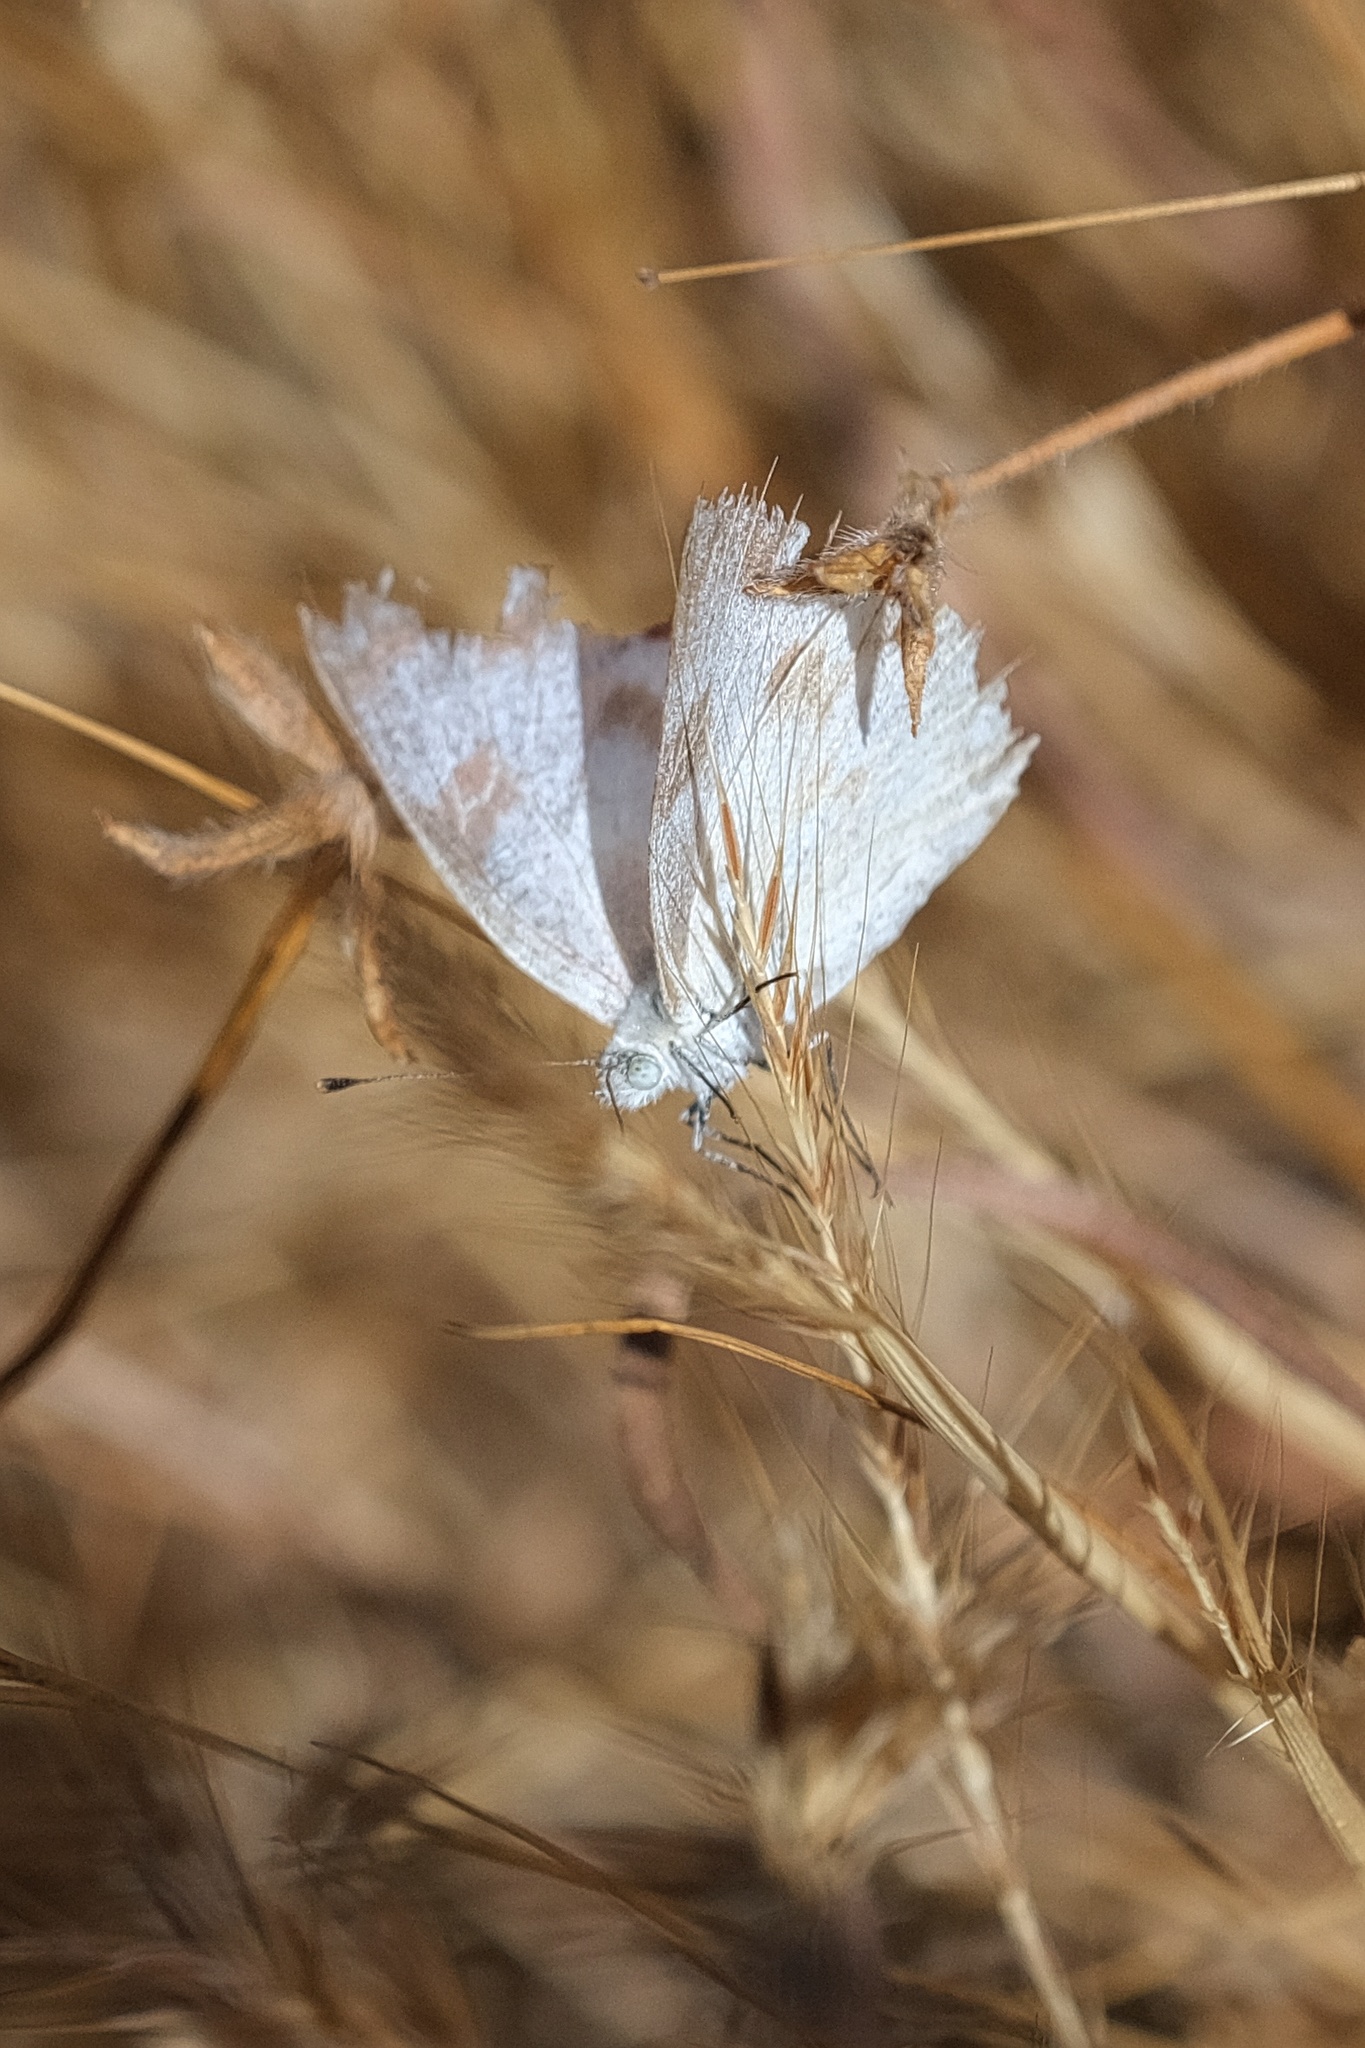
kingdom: Animalia
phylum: Arthropoda
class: Insecta
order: Lepidoptera
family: Pieridae
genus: Pontia
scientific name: Pontia protodice
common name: Checkered white
